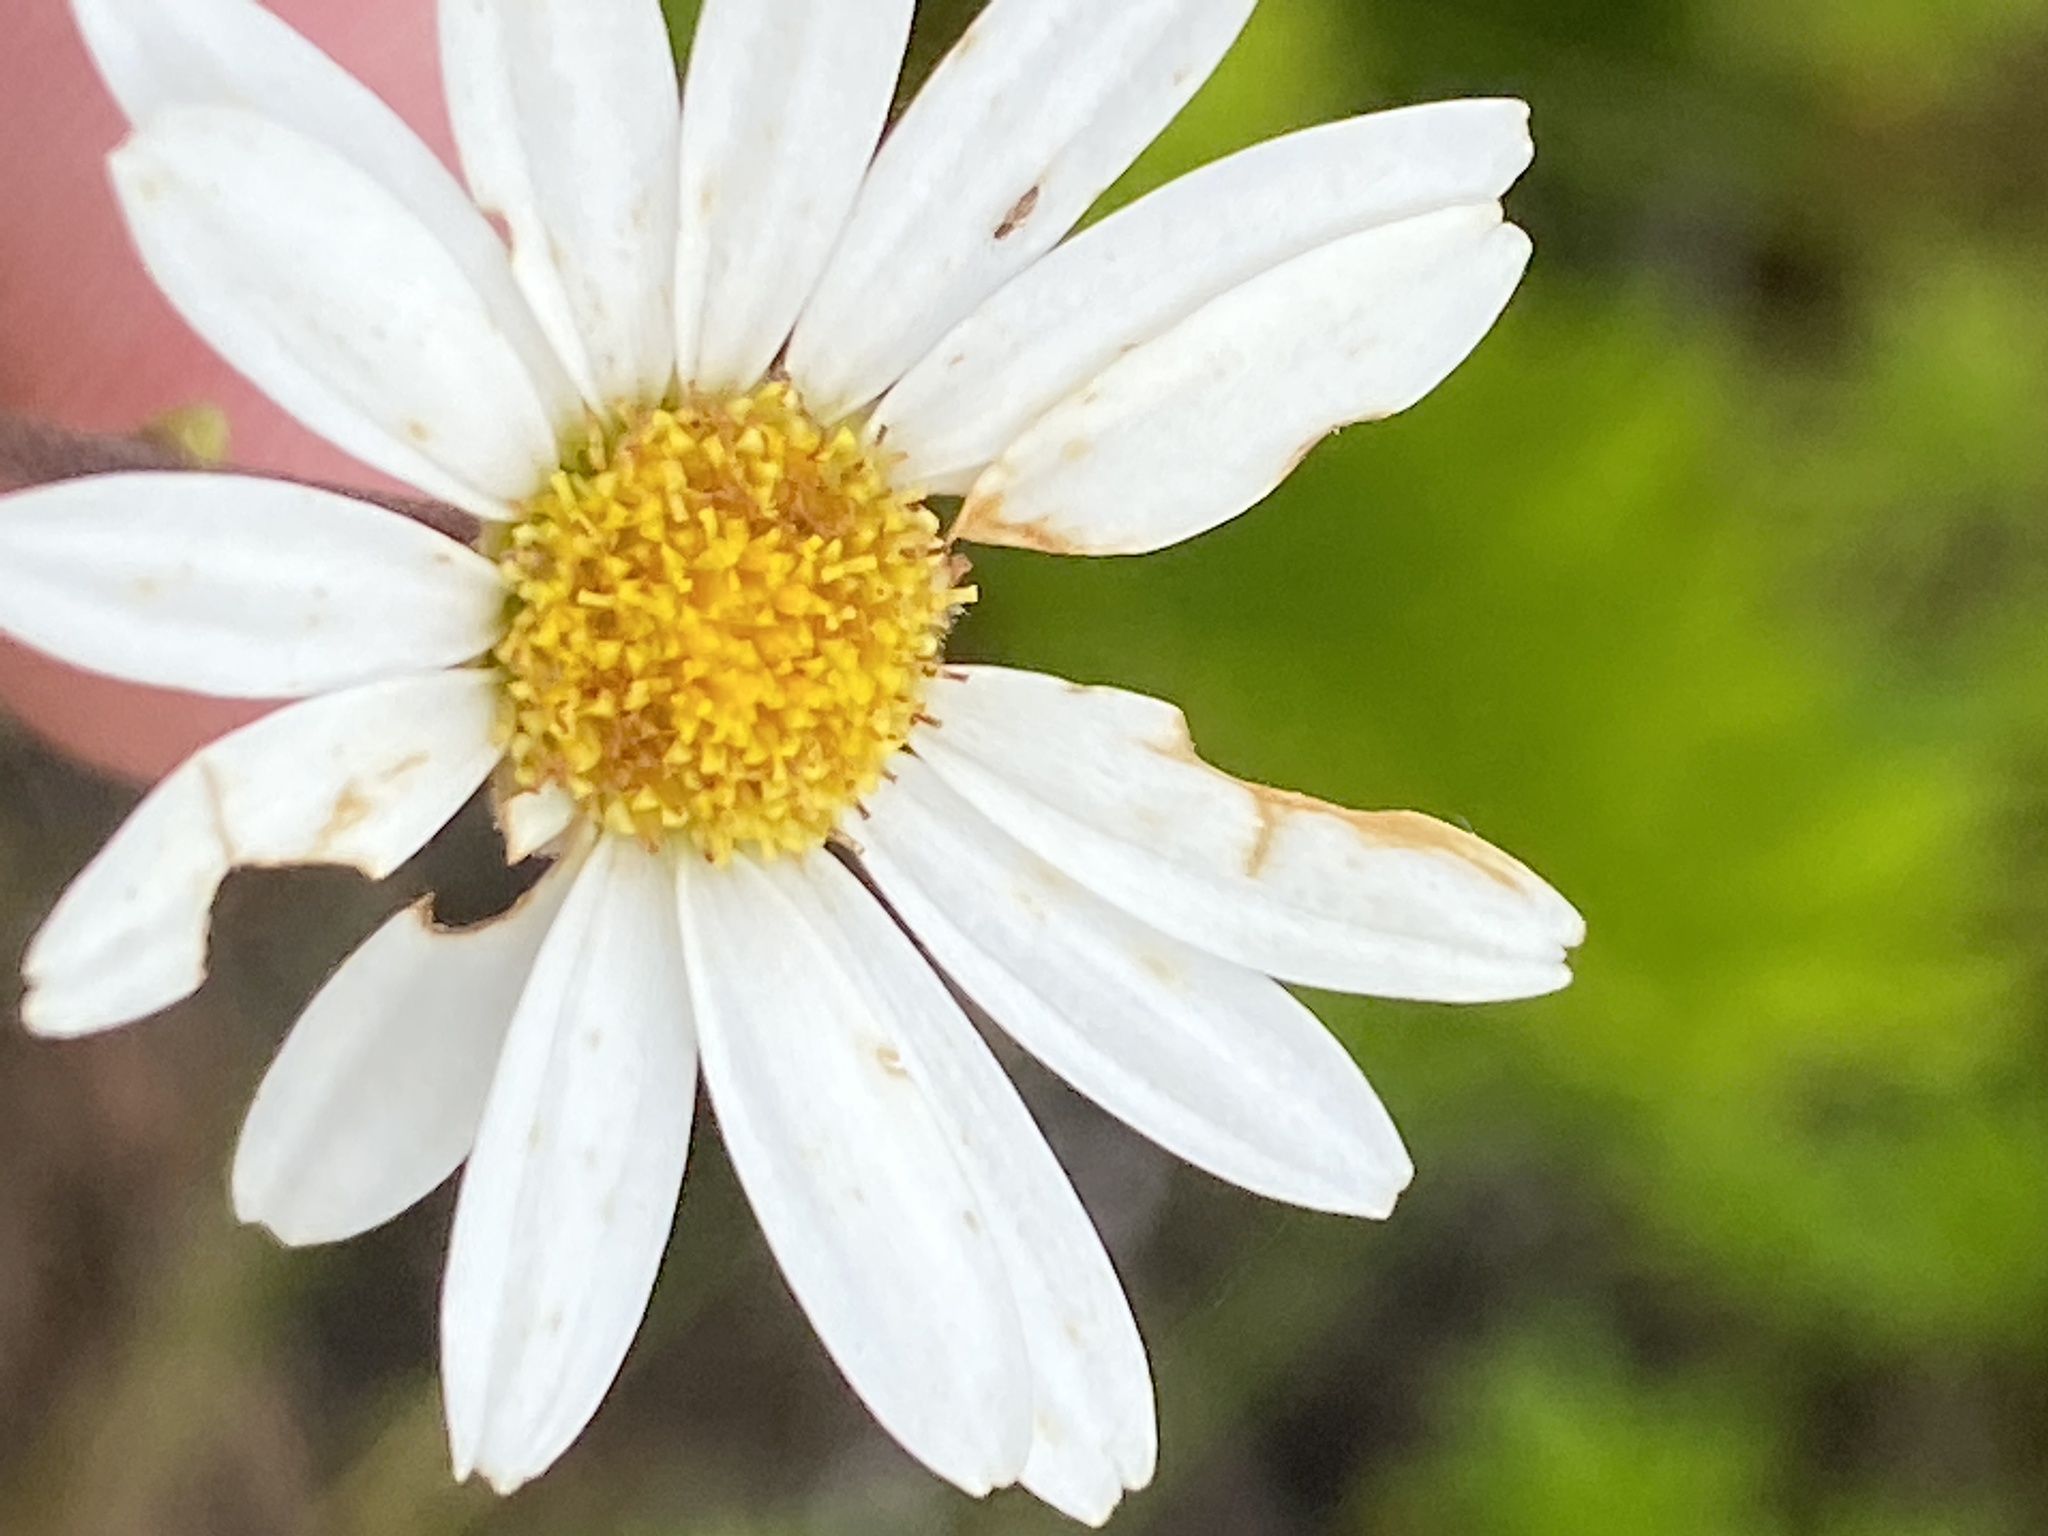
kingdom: Plantae
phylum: Tracheophyta
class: Magnoliopsida
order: Asterales
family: Asteraceae
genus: Osmitopsis
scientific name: Osmitopsis osmitoides
